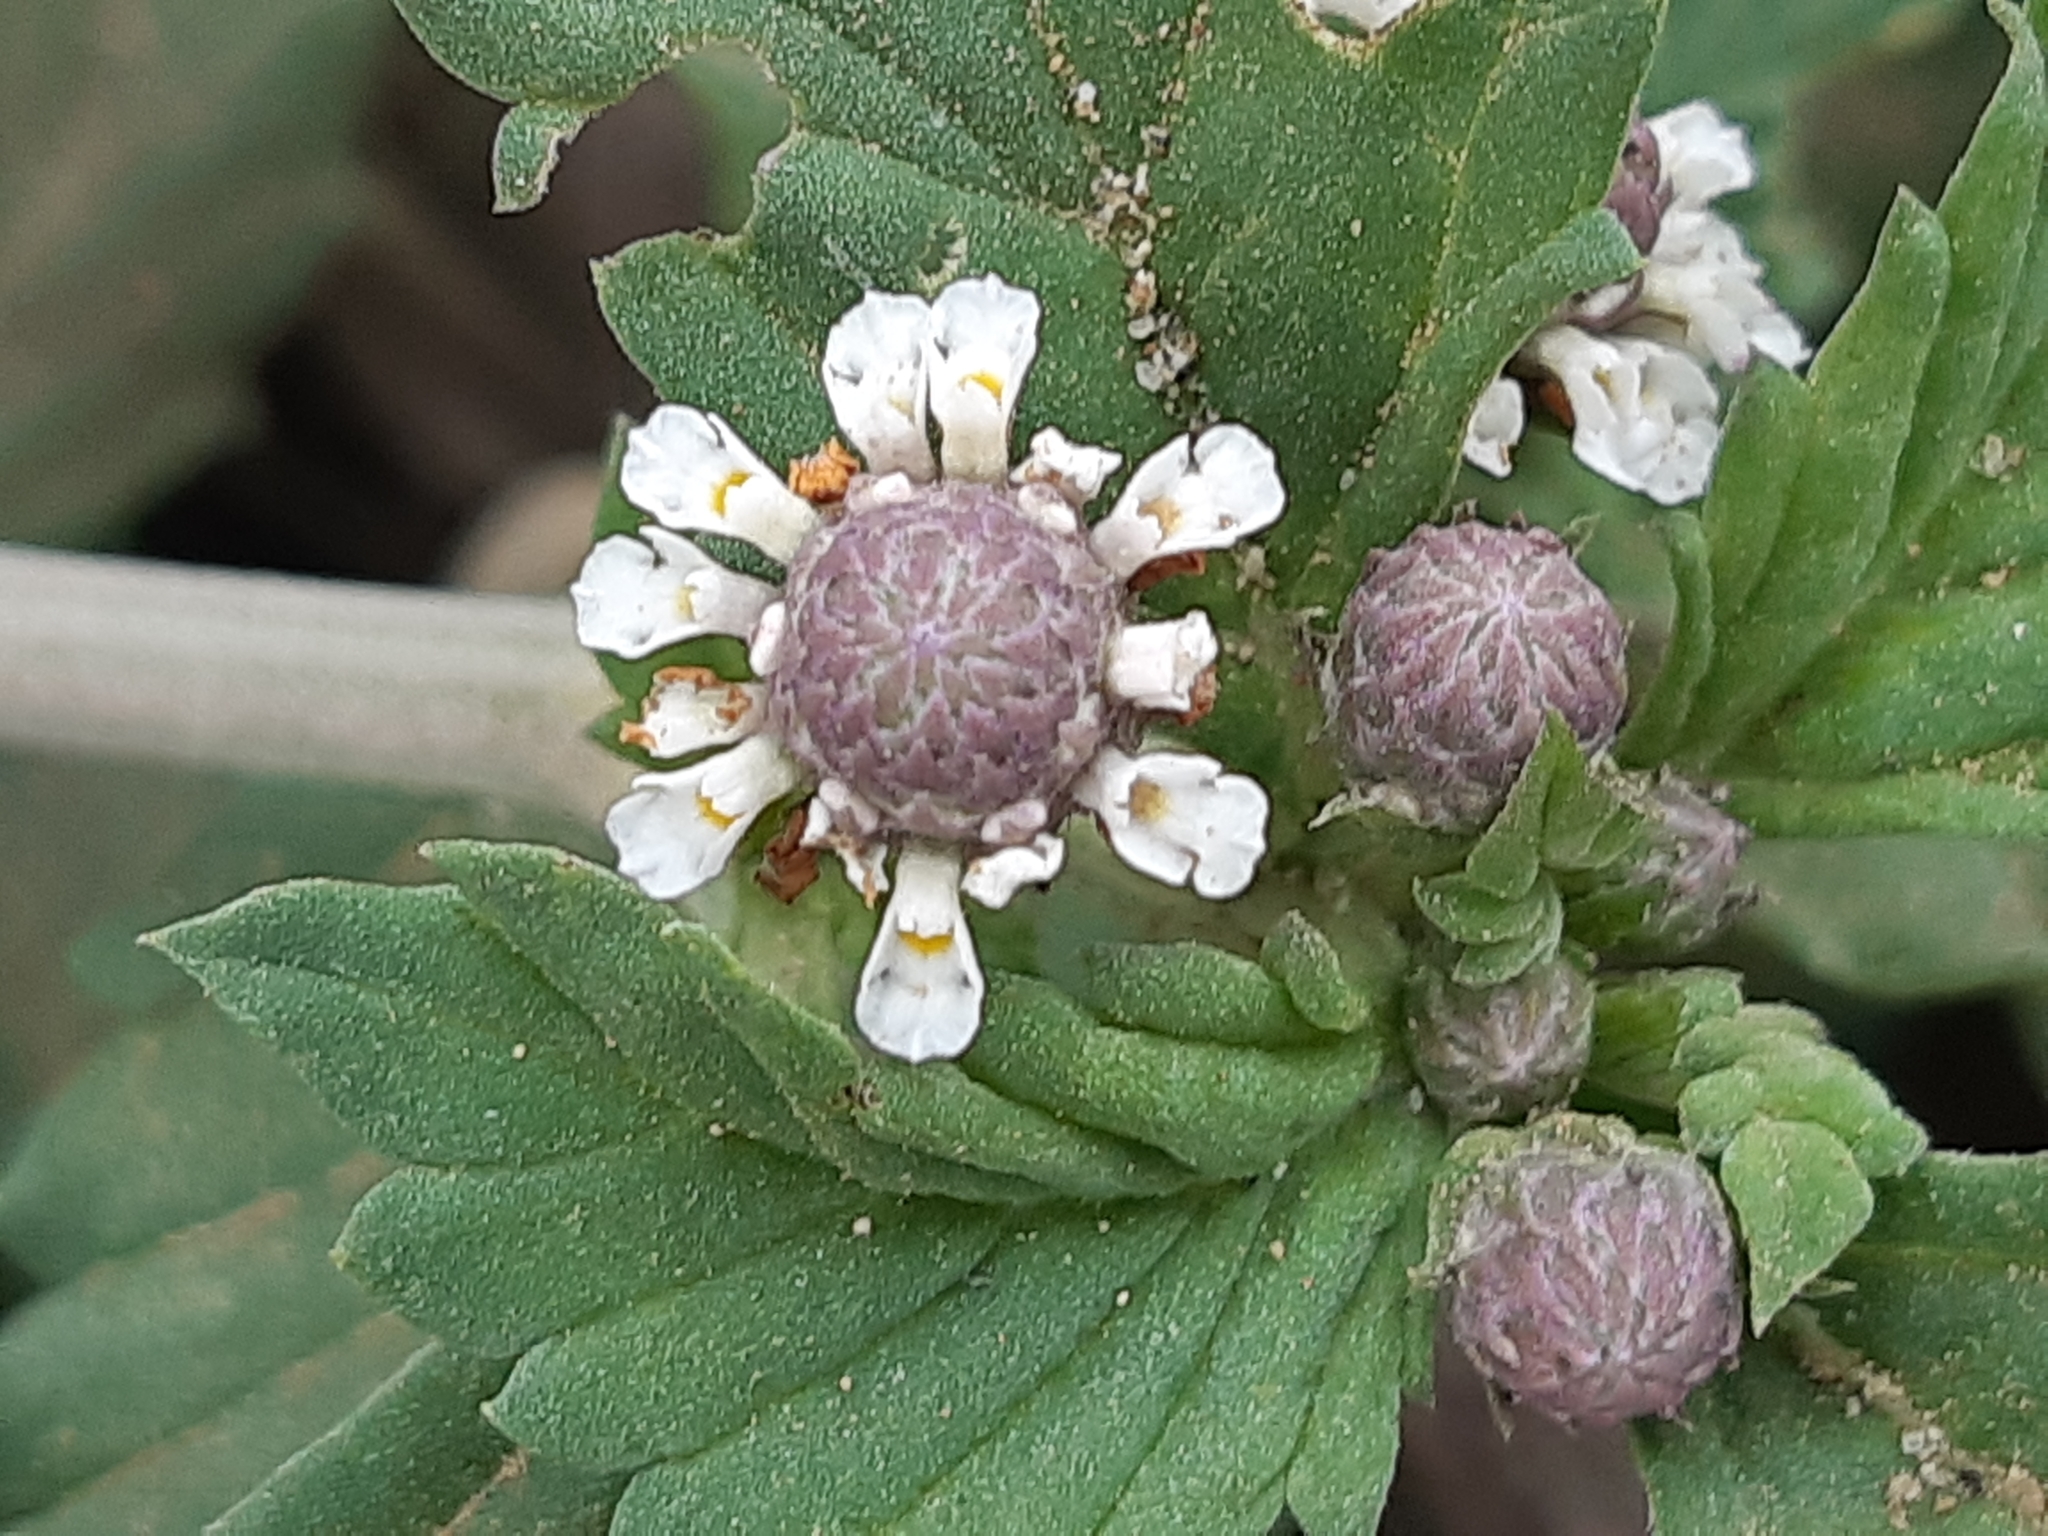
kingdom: Plantae
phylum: Tracheophyta
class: Magnoliopsida
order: Lamiales
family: Verbenaceae
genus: Phyla
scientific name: Phyla nodiflora
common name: Frogfruit
